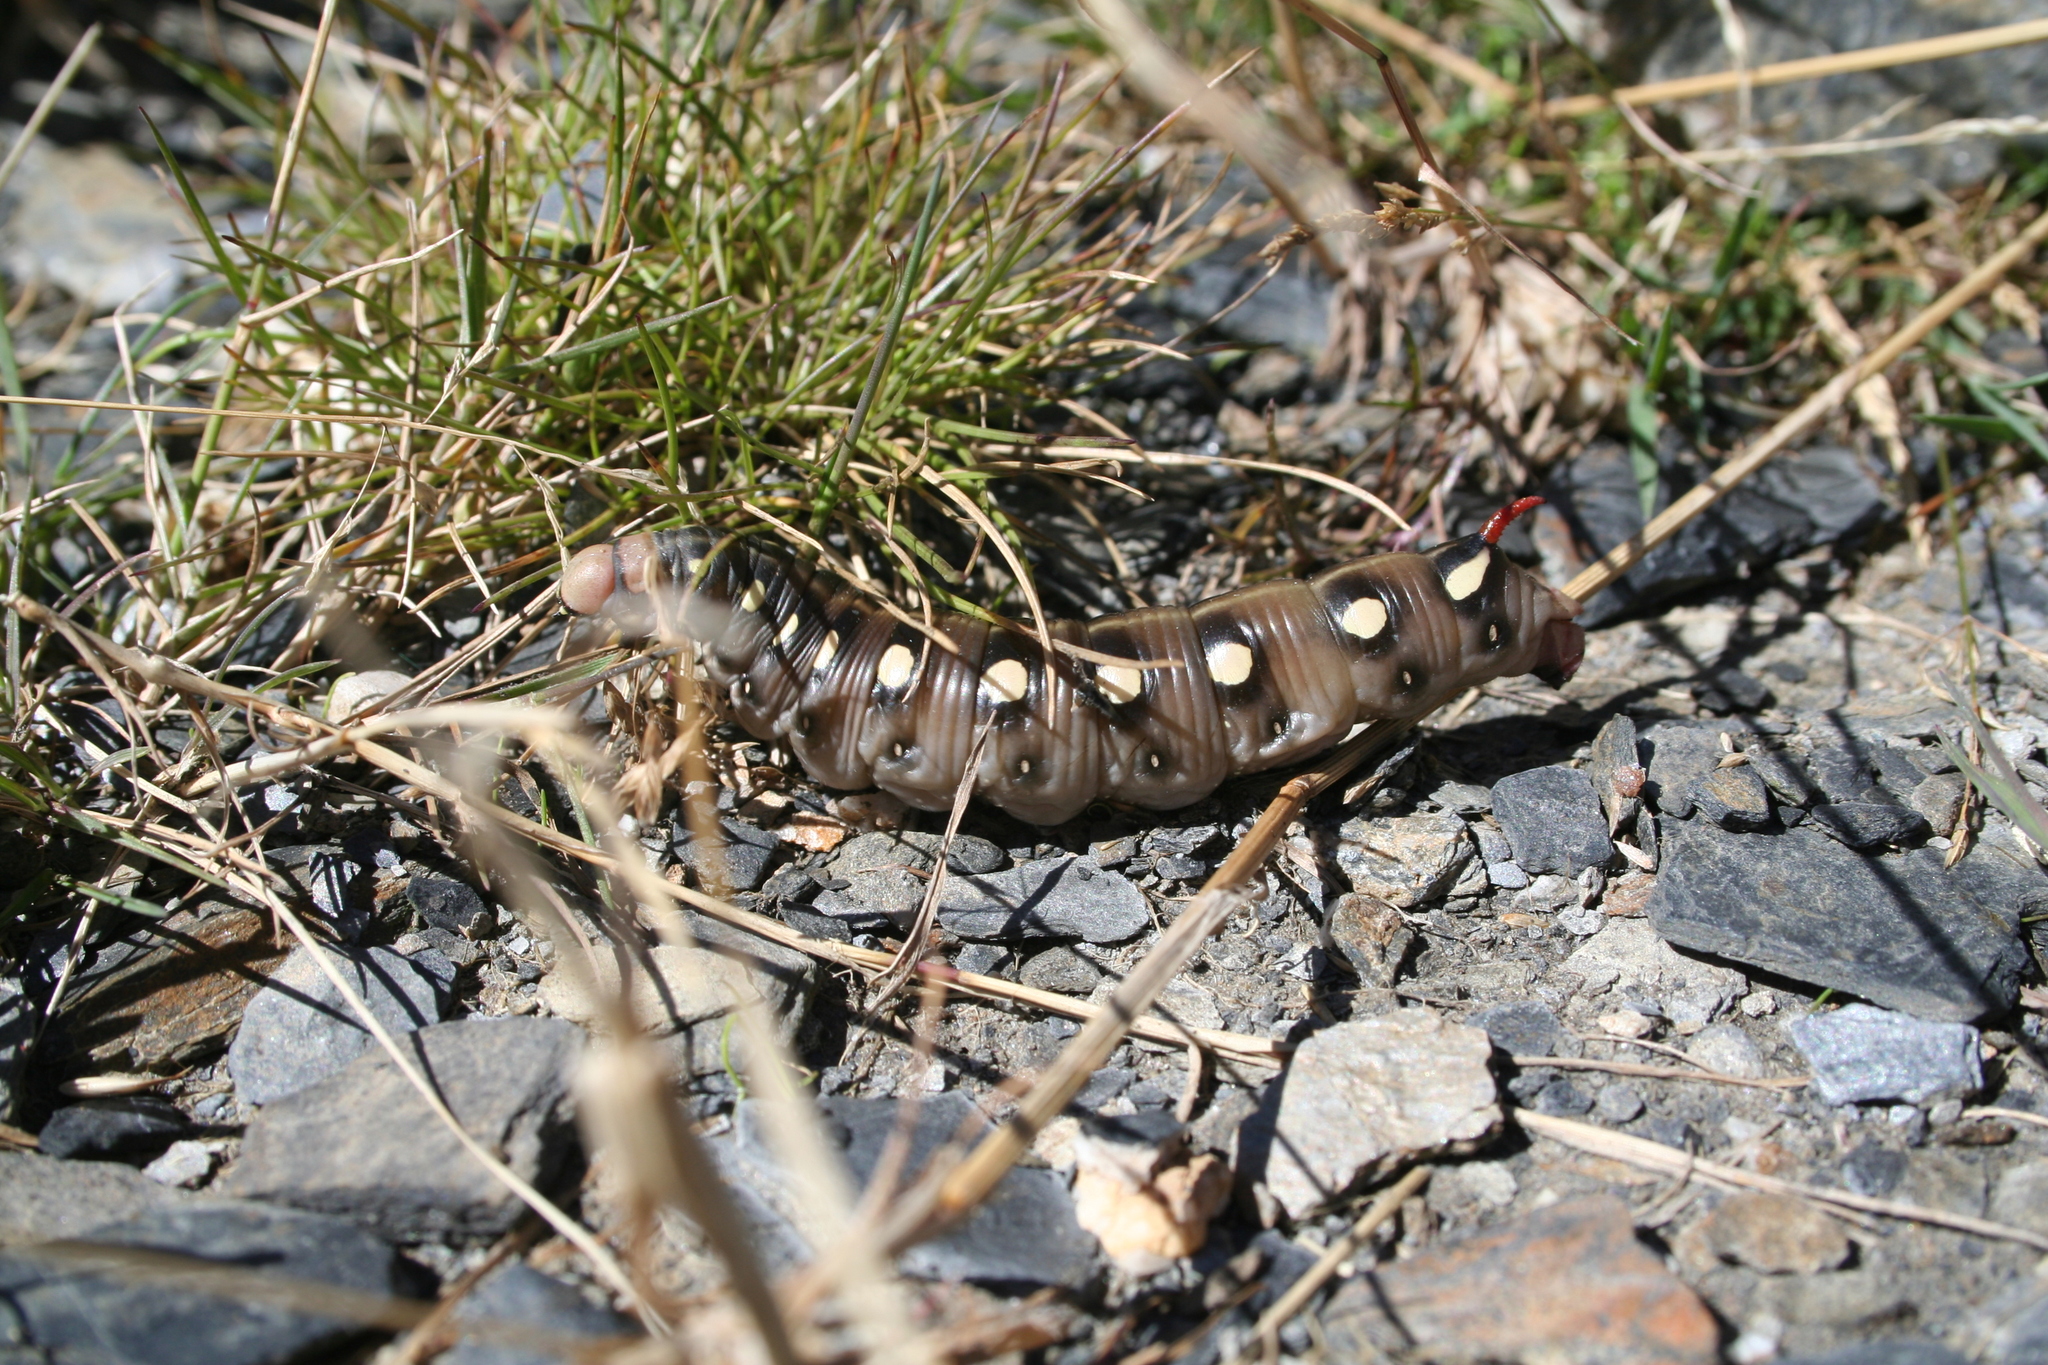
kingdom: Animalia
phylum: Arthropoda
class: Insecta
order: Lepidoptera
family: Sphingidae
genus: Hyles
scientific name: Hyles gallii
